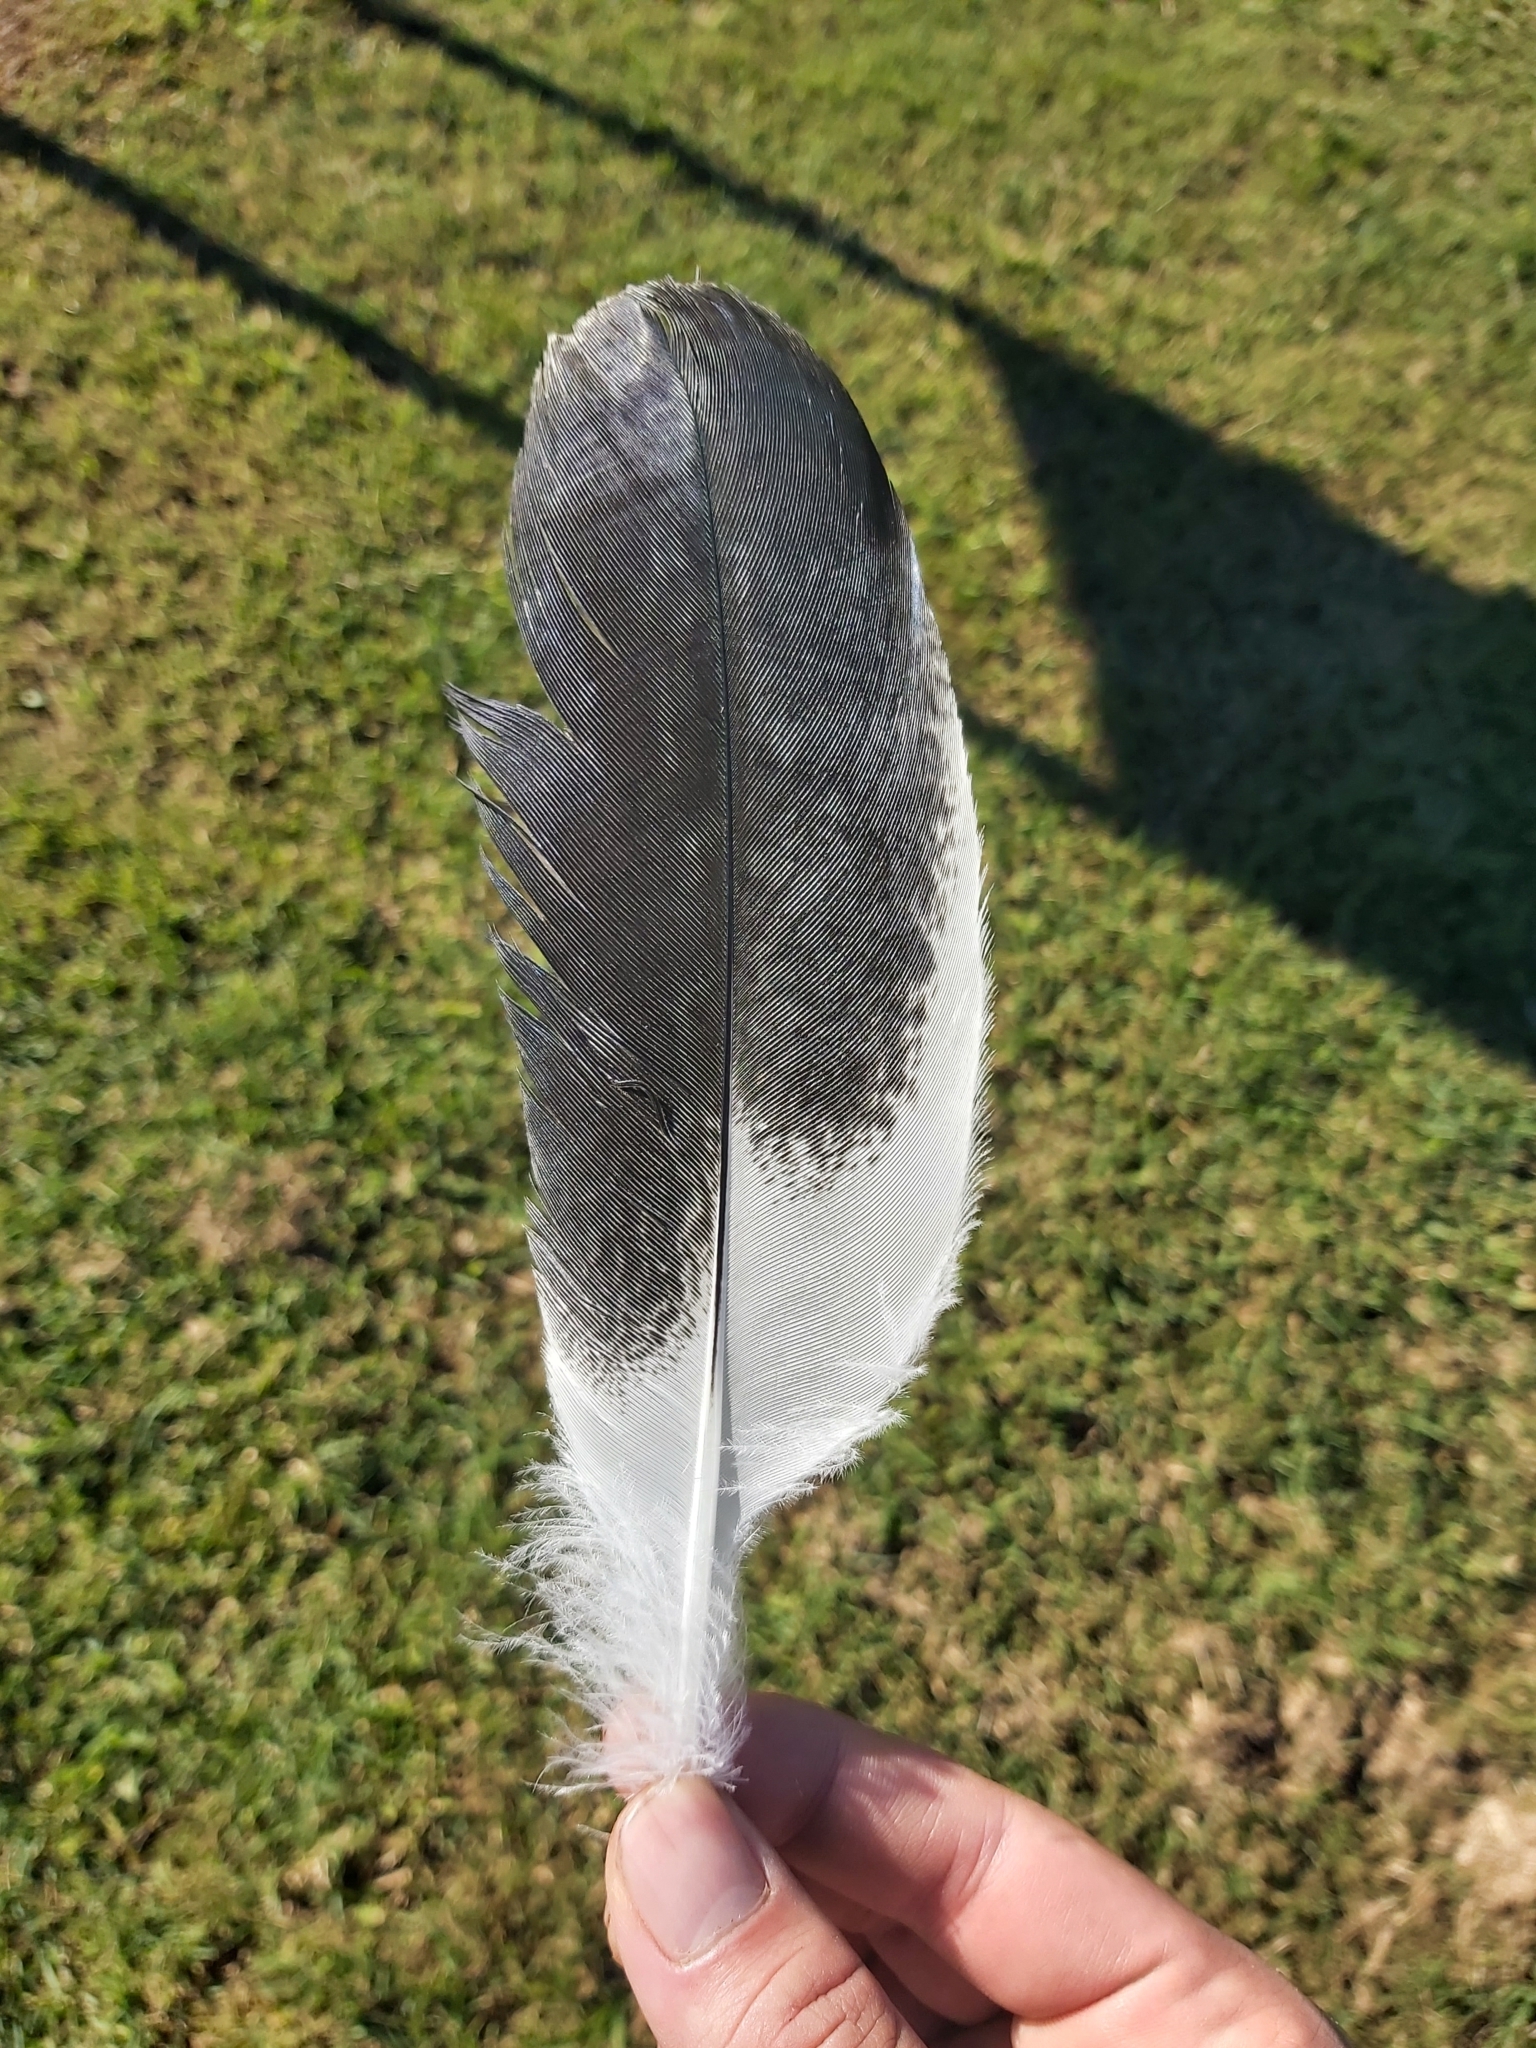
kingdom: Animalia
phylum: Chordata
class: Aves
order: Pelecaniformes
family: Threskiornithidae
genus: Threskiornis
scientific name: Threskiornis molucca
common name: Australian white ibis
